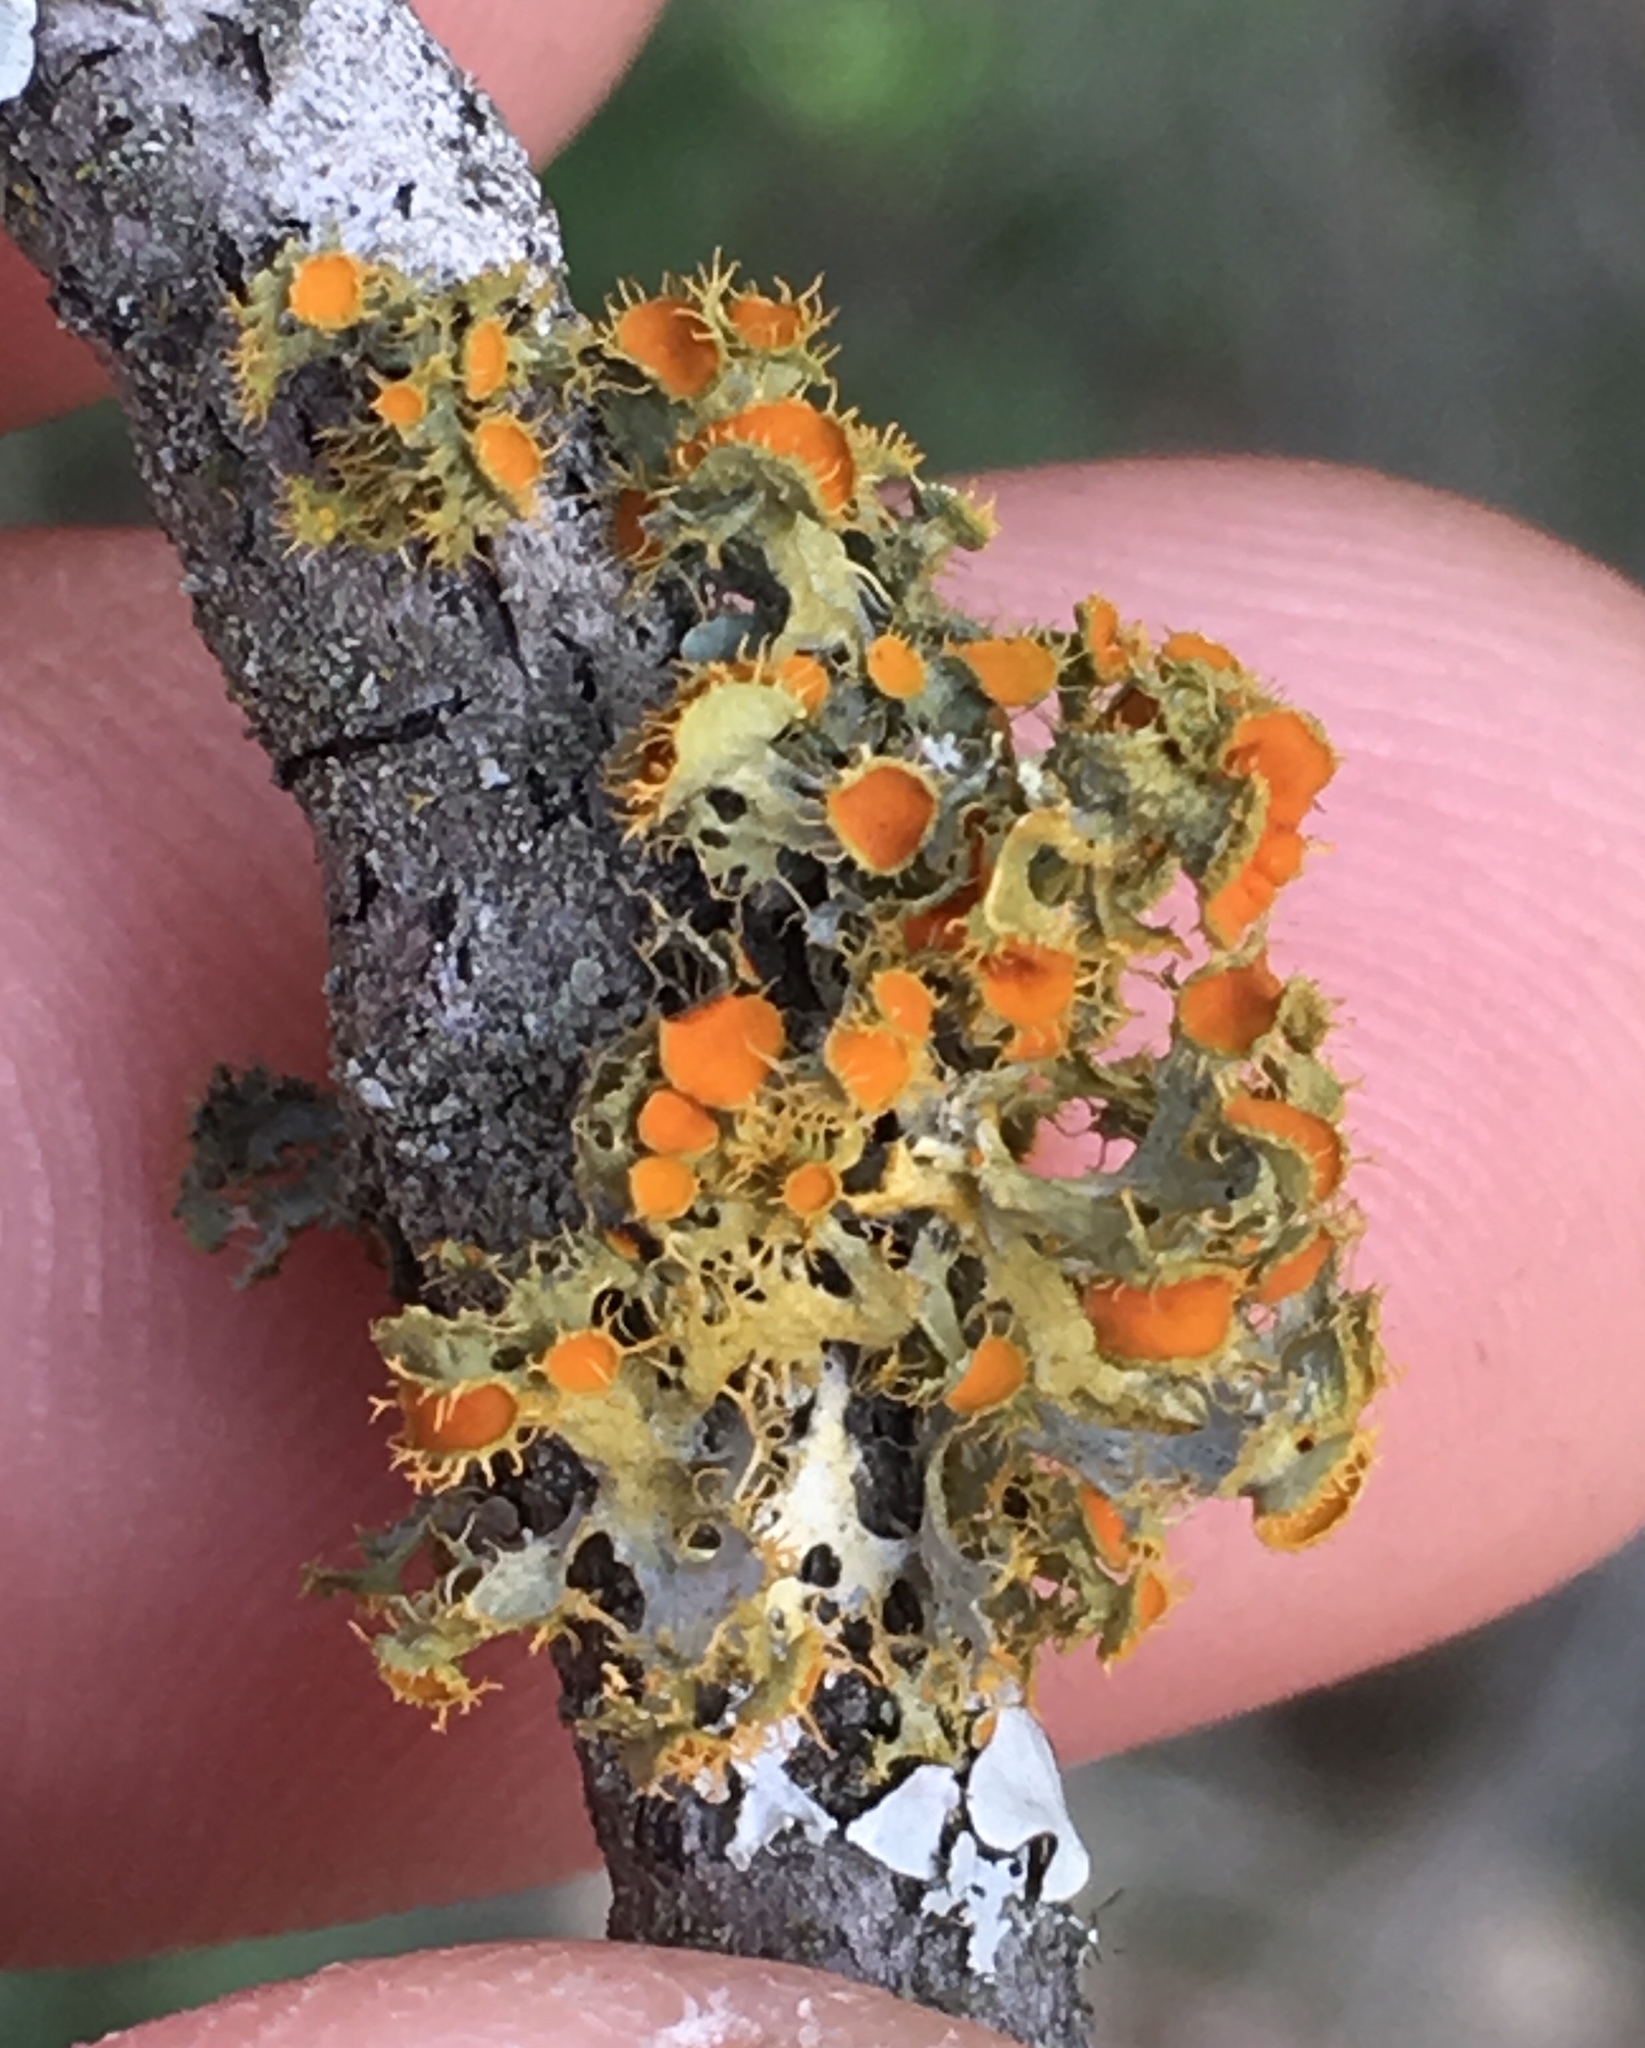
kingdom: Fungi
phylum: Ascomycota
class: Lecanoromycetes
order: Teloschistales
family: Teloschistaceae
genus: Niorma
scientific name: Niorma chrysophthalma
